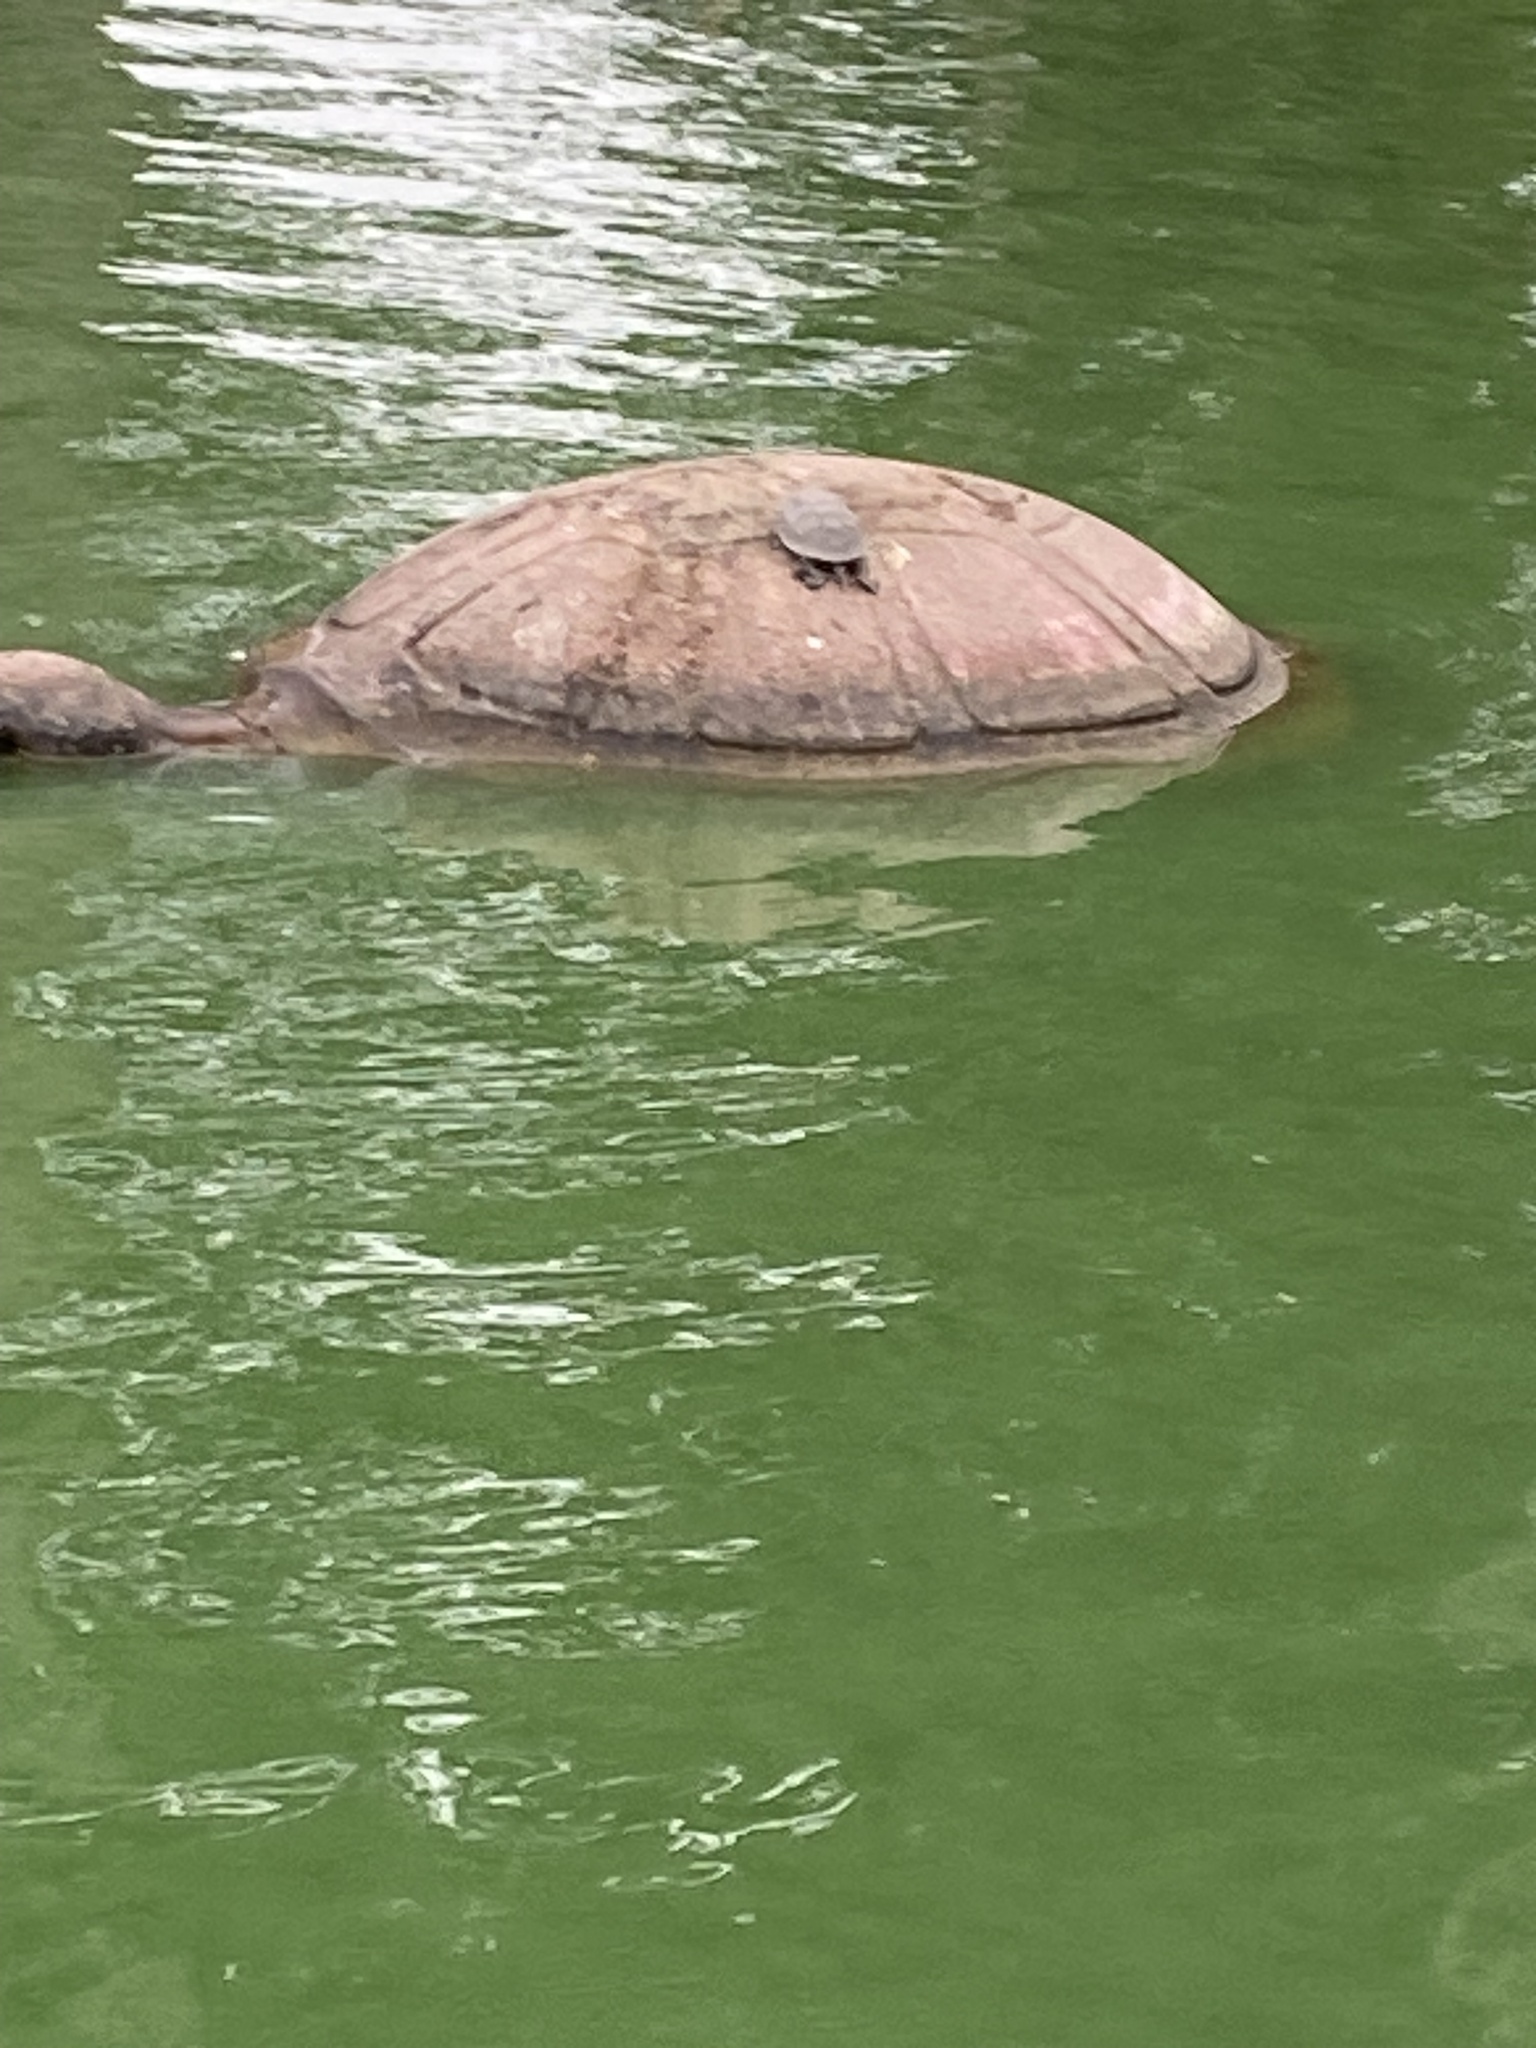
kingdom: Animalia
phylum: Chordata
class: Testudines
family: Emydidae
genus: Trachemys
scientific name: Trachemys scripta
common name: Slider
